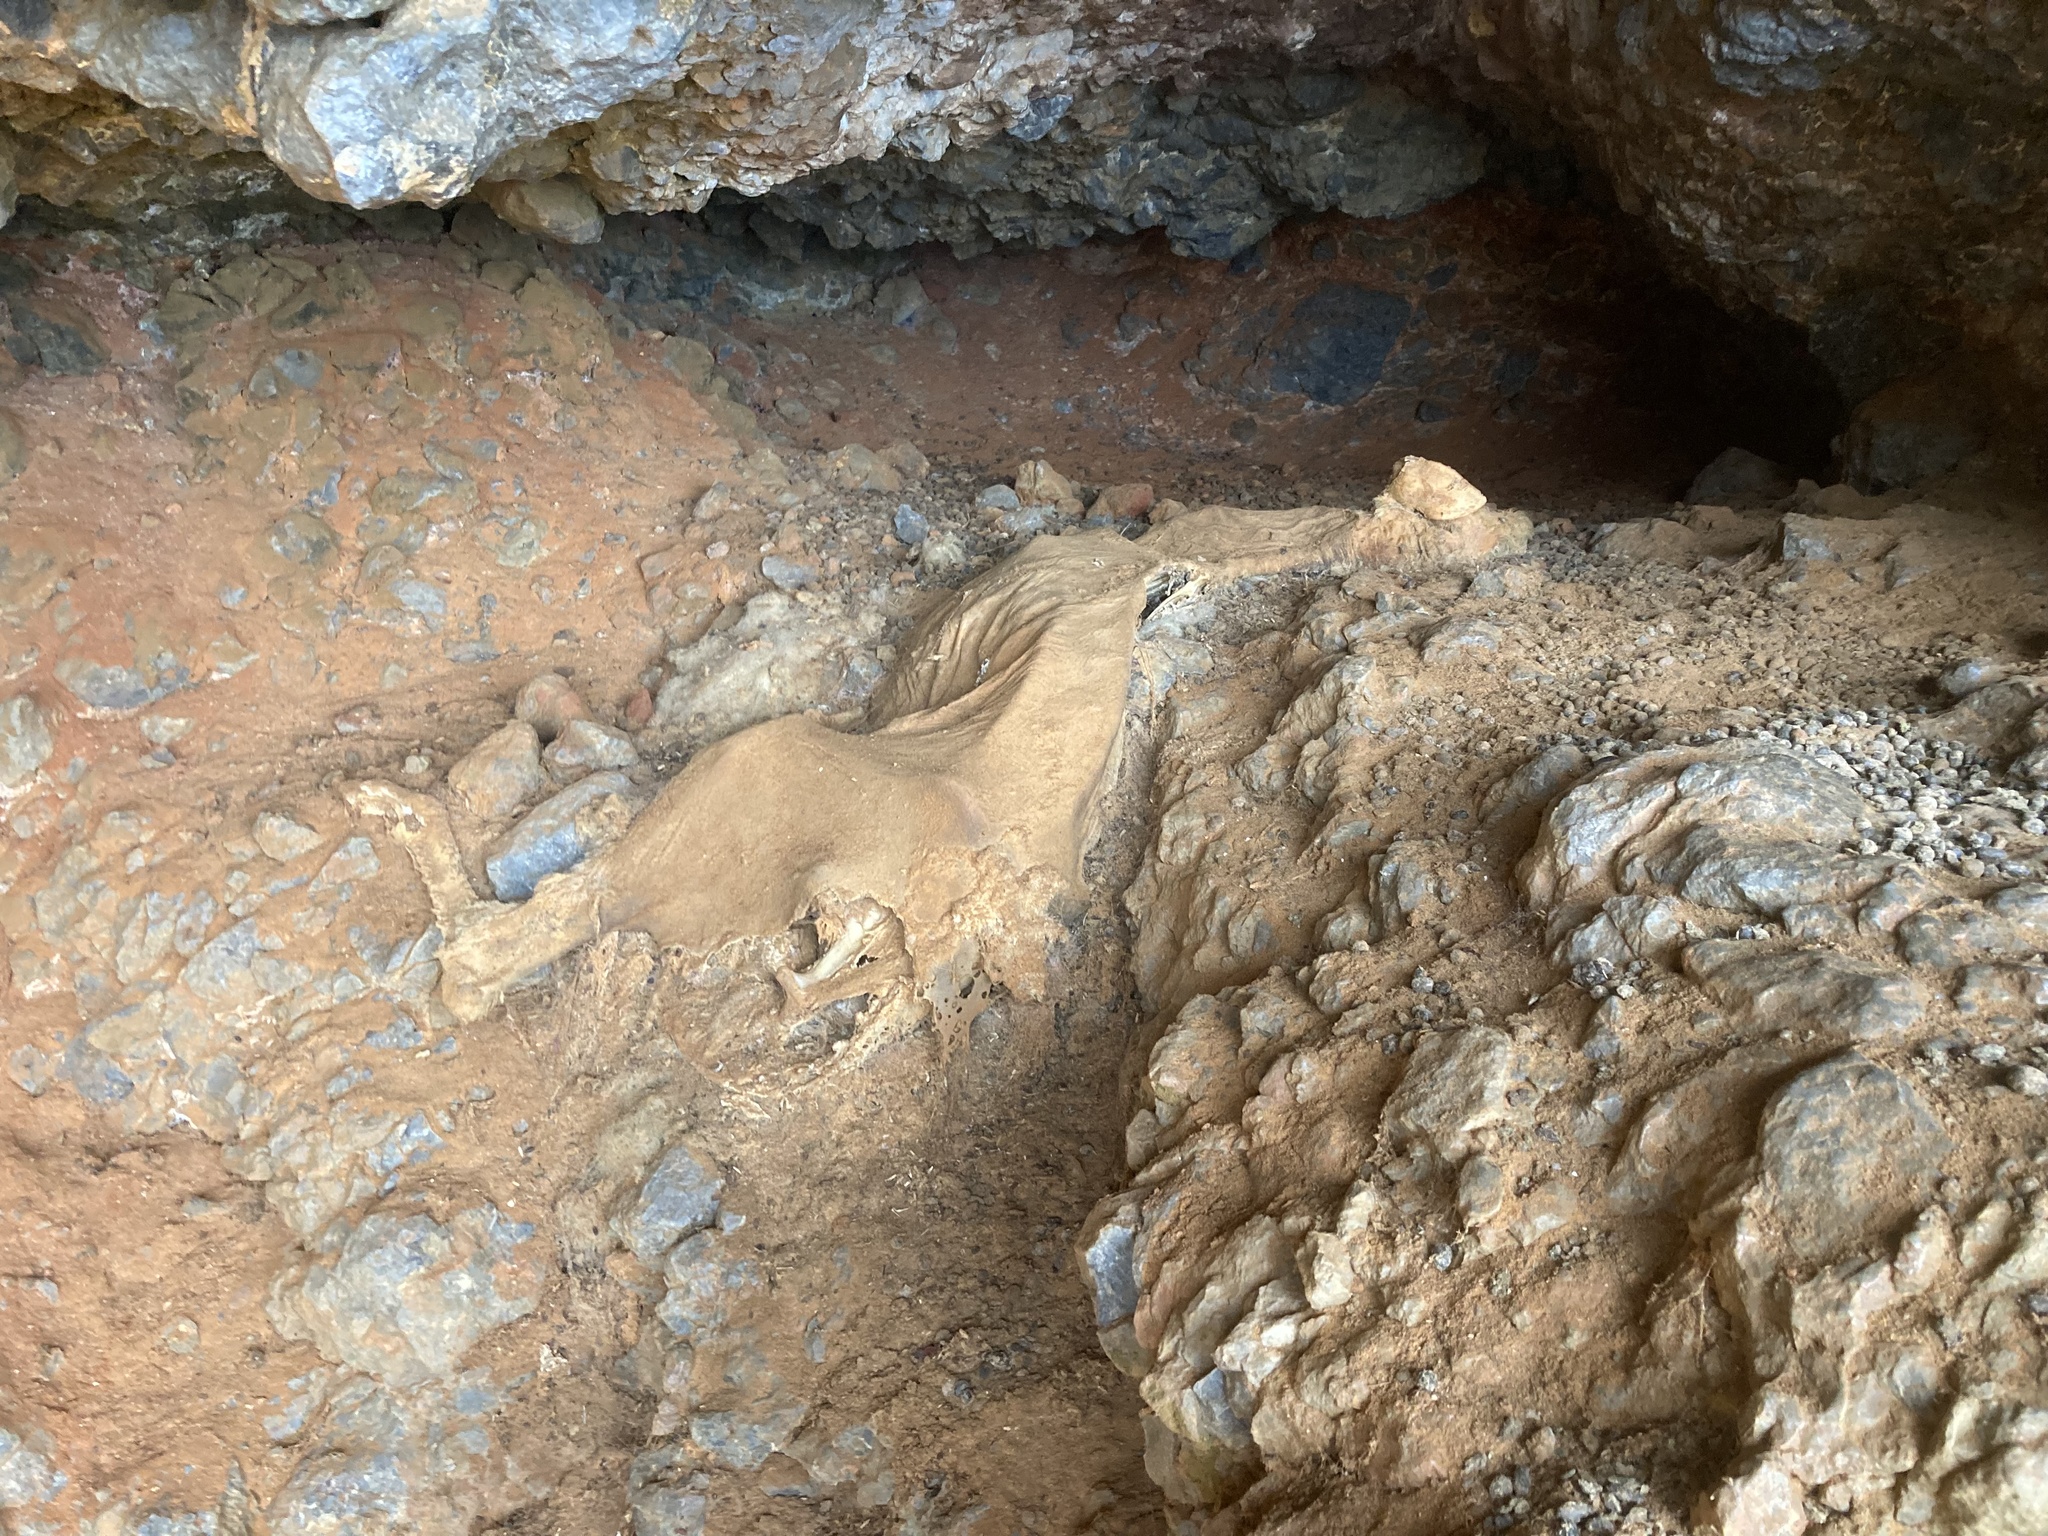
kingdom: Animalia
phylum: Chordata
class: Mammalia
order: Artiodactyla
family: Bovidae
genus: Capra
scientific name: Capra hircus
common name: Domestic goat
